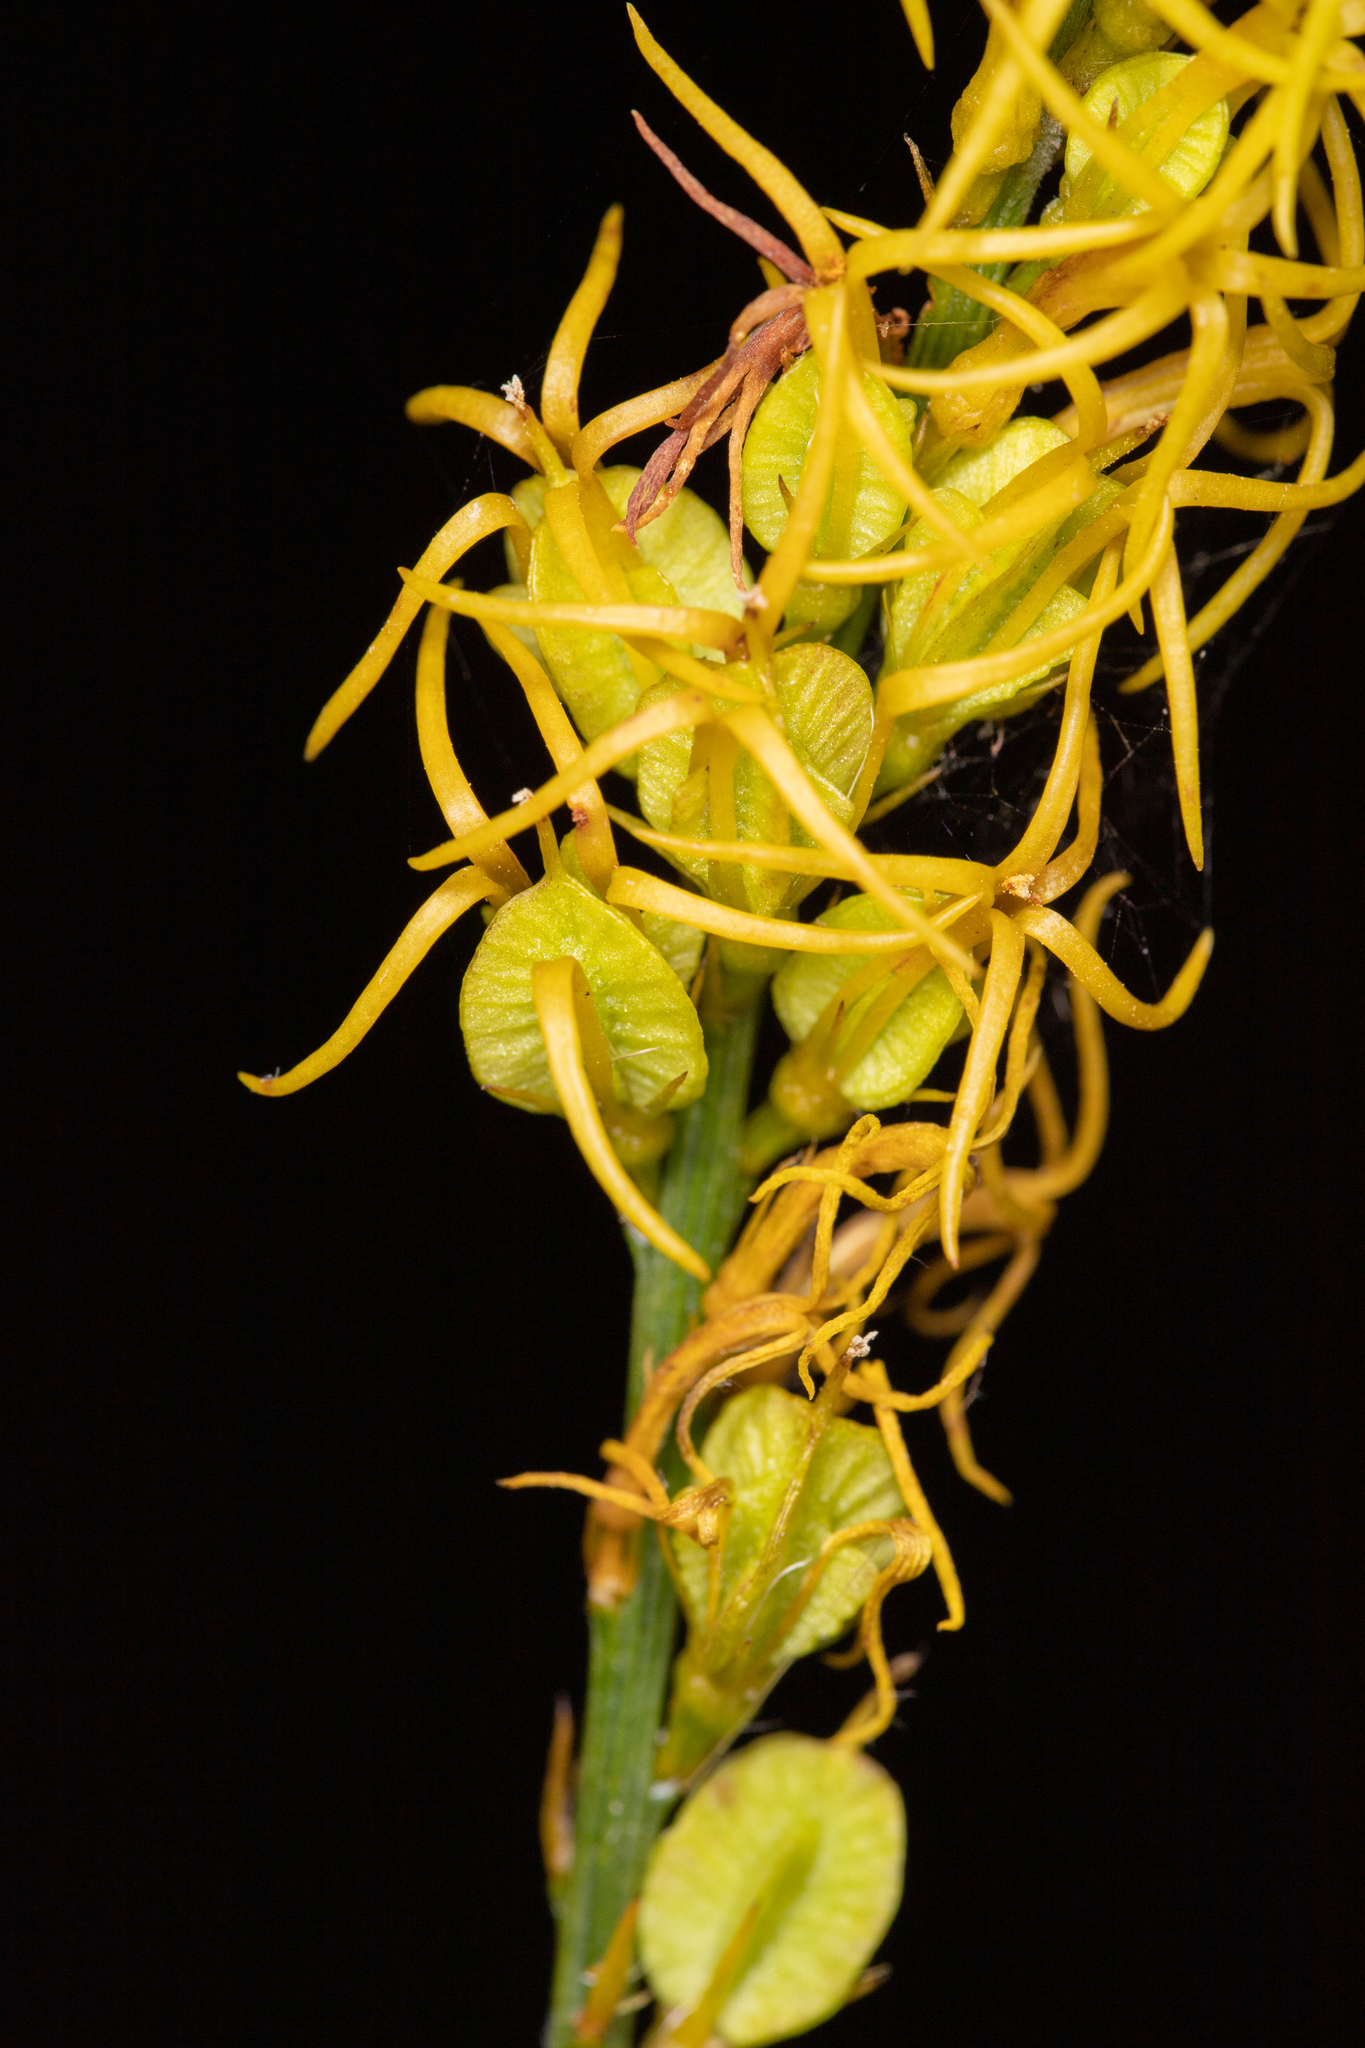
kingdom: Plantae
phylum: Tracheophyta
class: Magnoliopsida
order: Celastrales
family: Celastraceae
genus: Tripterococcus
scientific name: Tripterococcus brunonis
